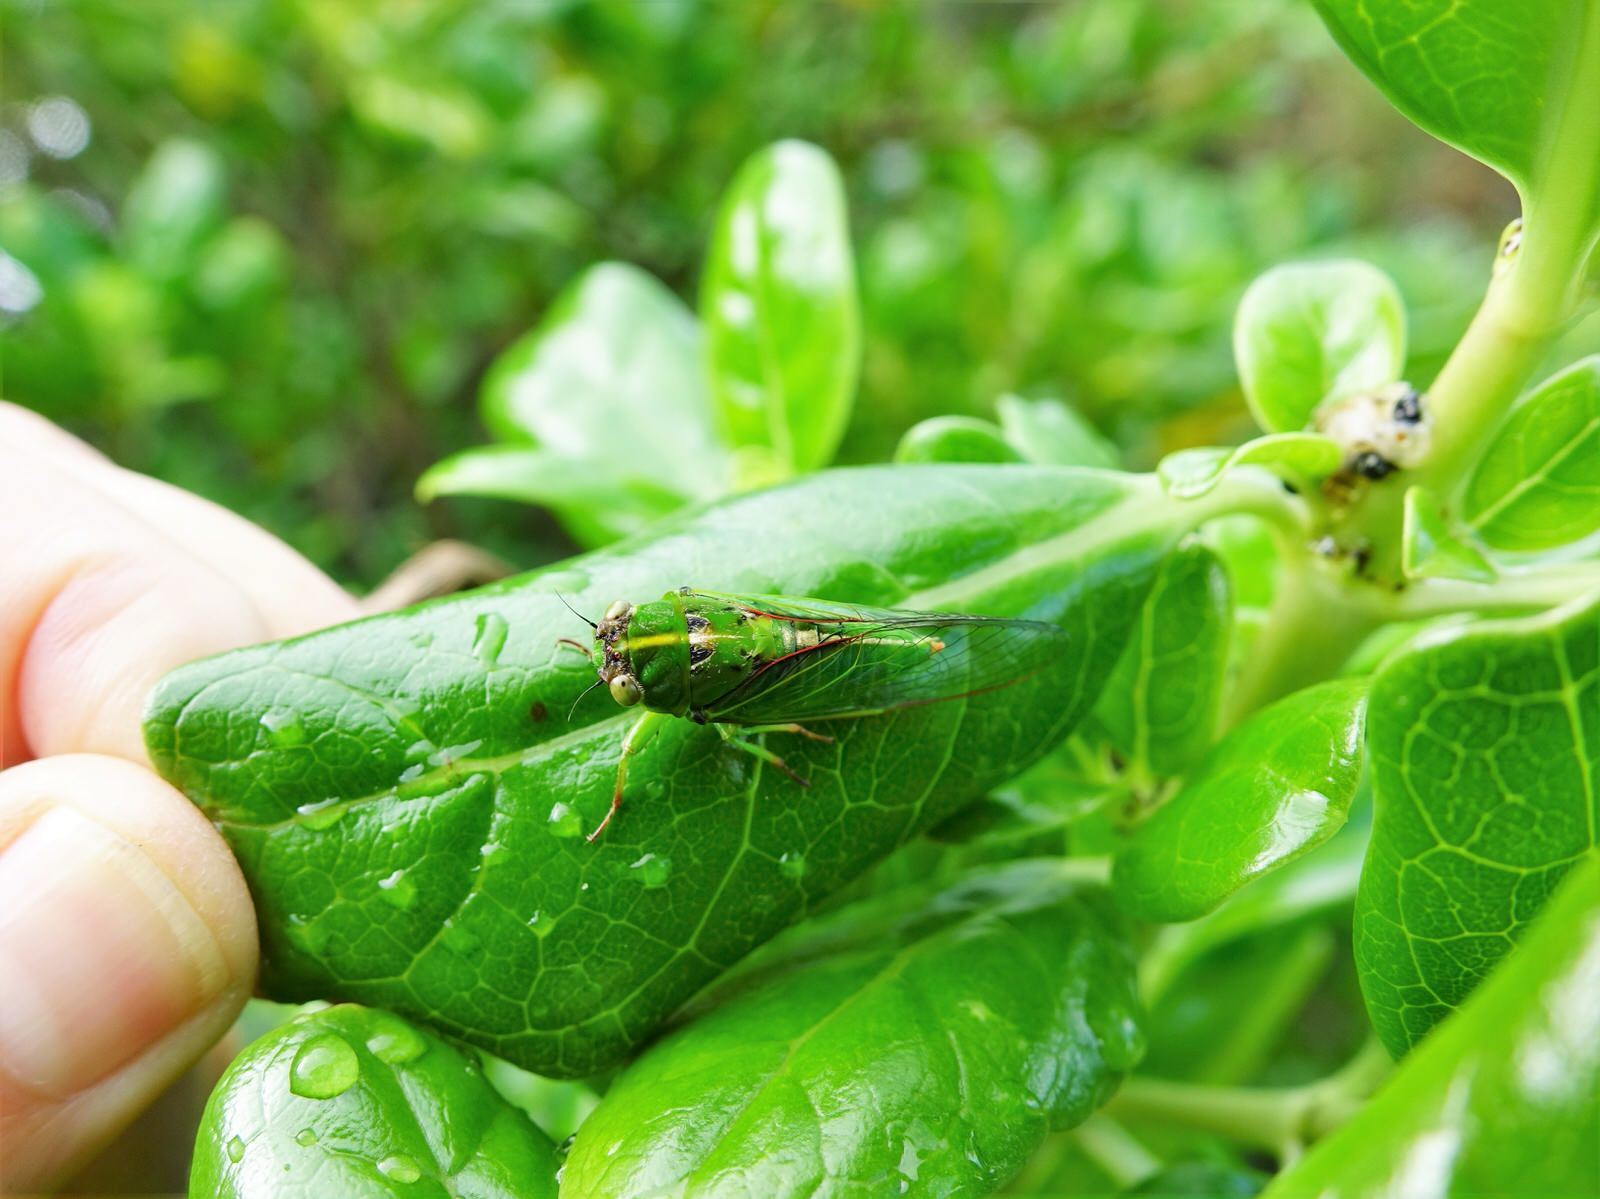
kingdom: Animalia
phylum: Arthropoda
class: Insecta
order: Hemiptera
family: Cicadidae
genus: Kikihia
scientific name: Kikihia cutora
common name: Northern snoring cicada
